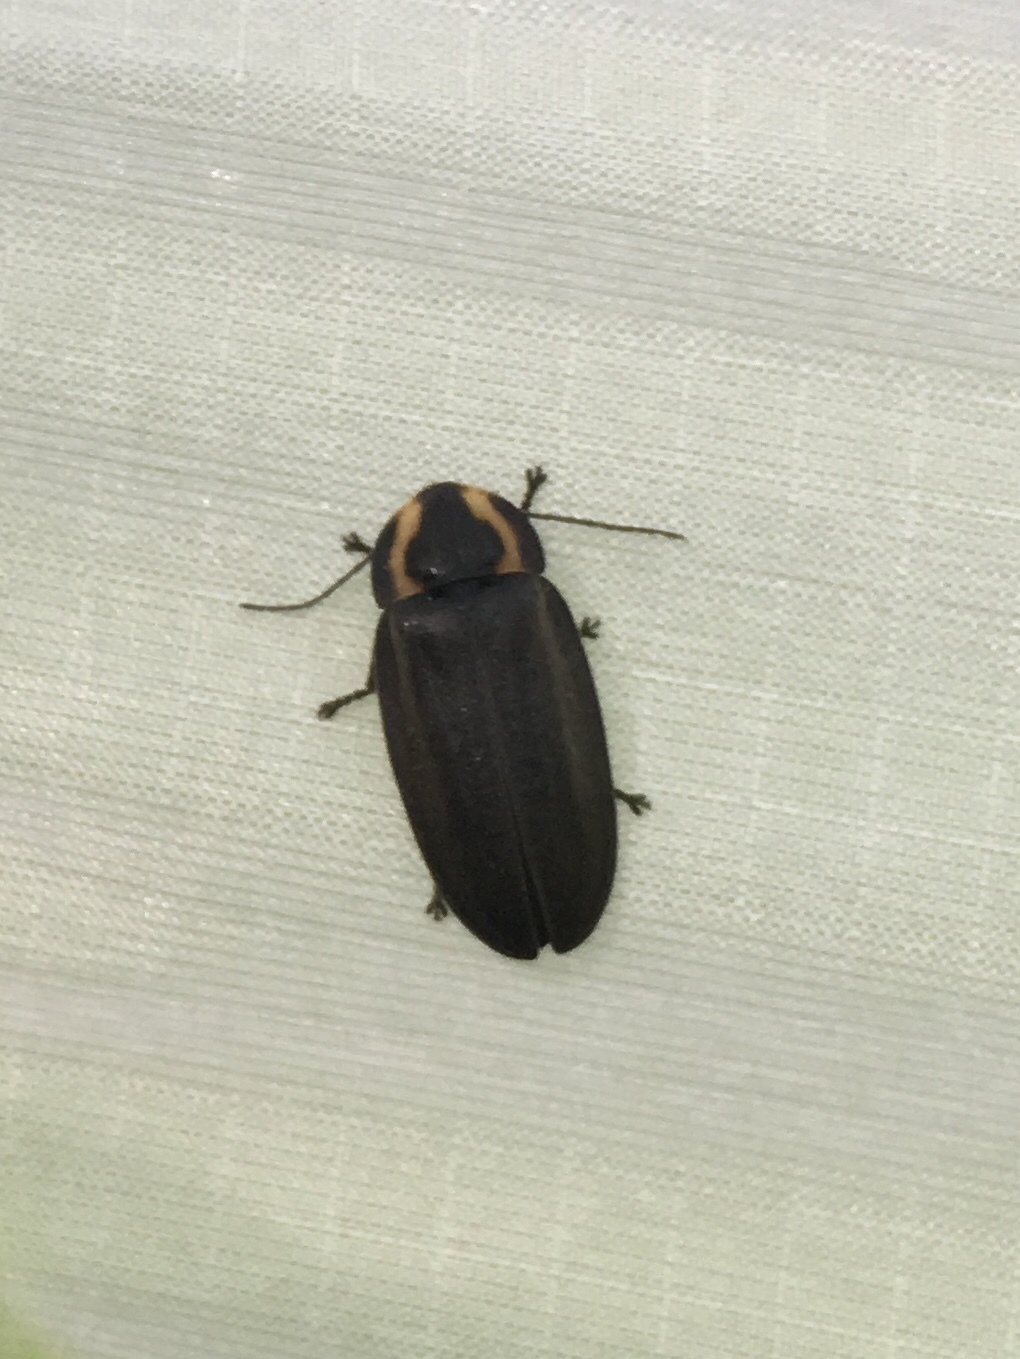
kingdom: Animalia
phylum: Arthropoda
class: Insecta
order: Coleoptera
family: Lampyridae
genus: Photinus
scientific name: Photinus corrusca
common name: Winter firefly
